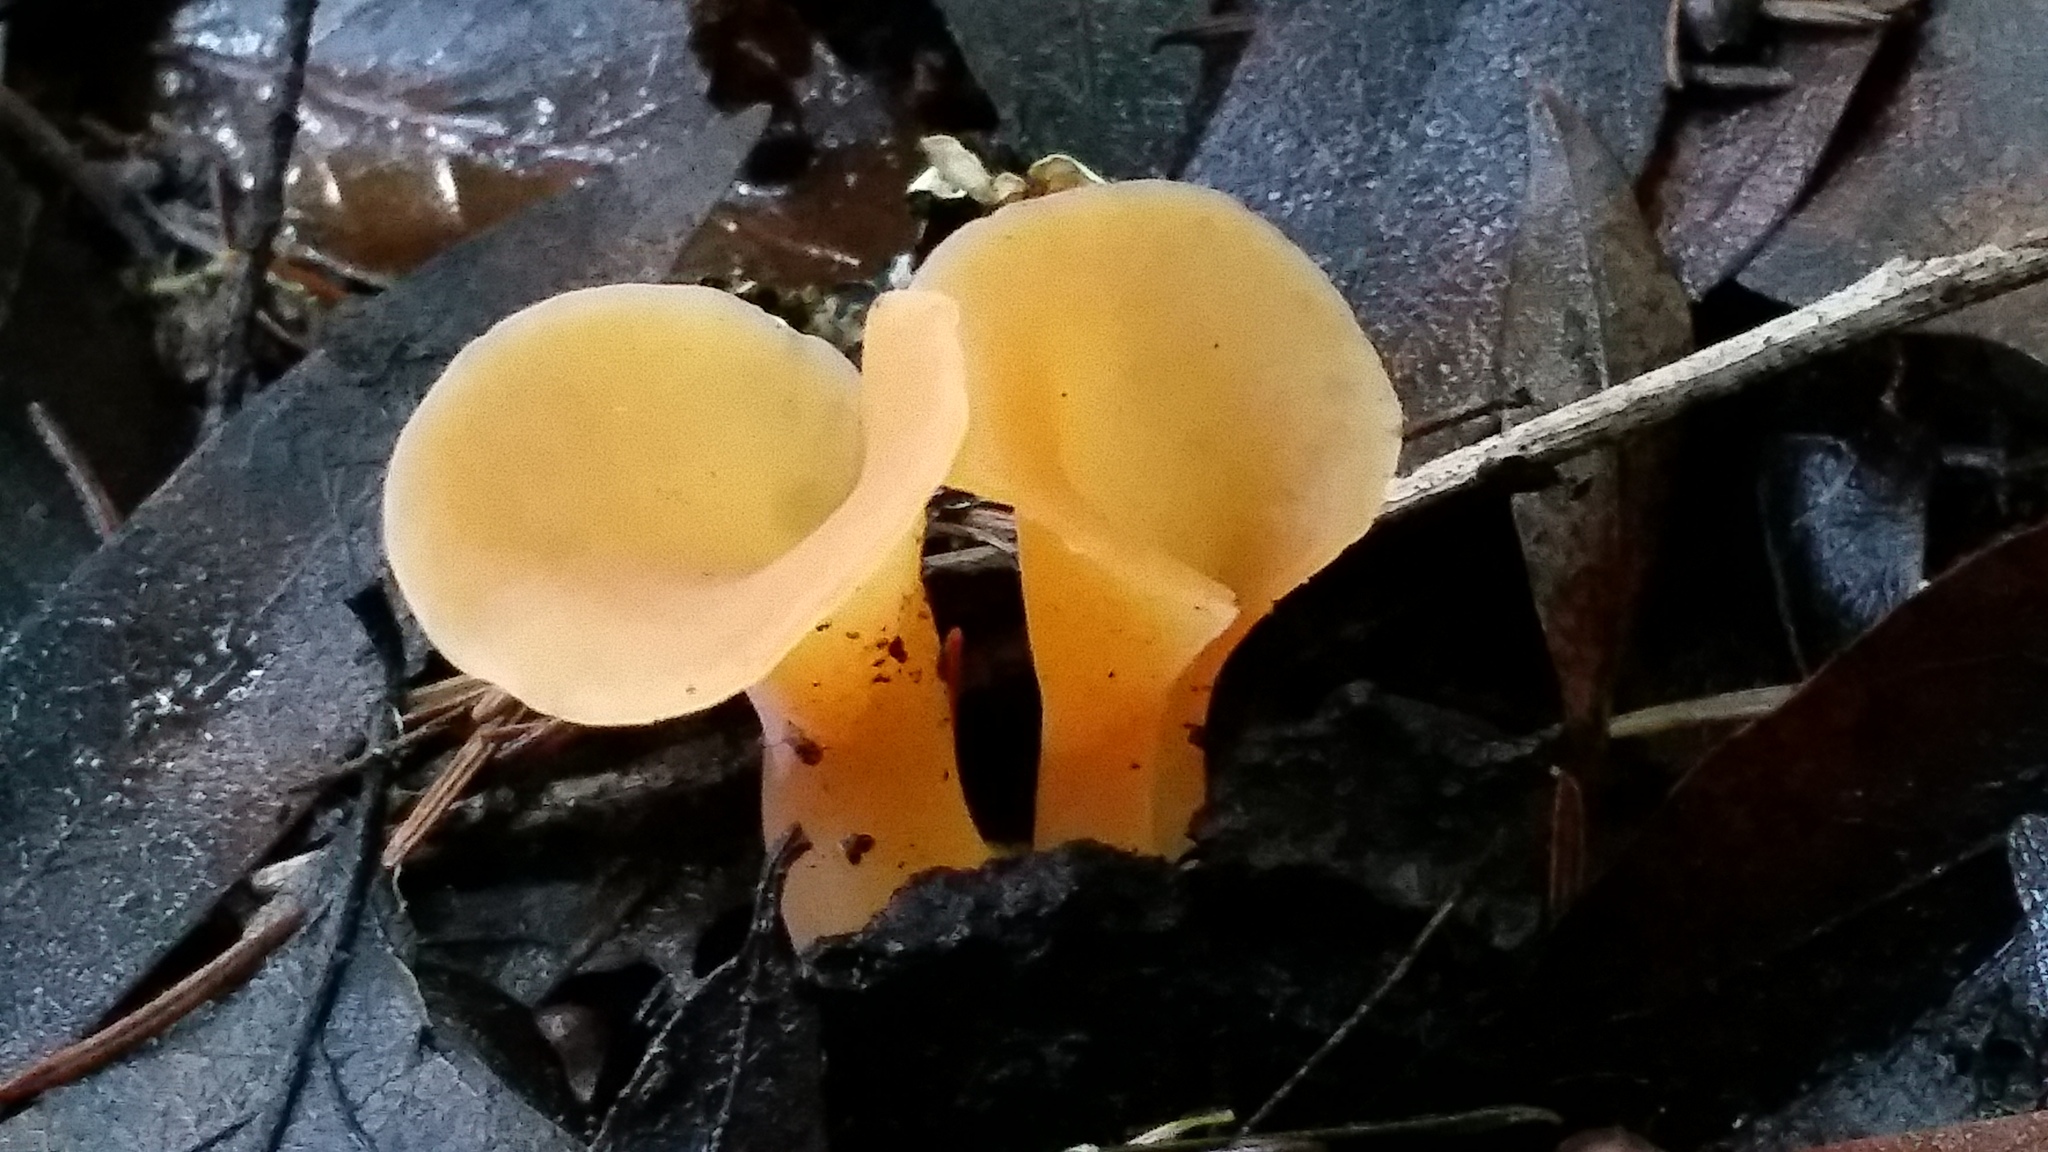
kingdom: Fungi
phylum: Basidiomycota
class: Agaricomycetes
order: Auriculariales
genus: Guepinia
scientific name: Guepinia helvelloides
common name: Salmon salad
